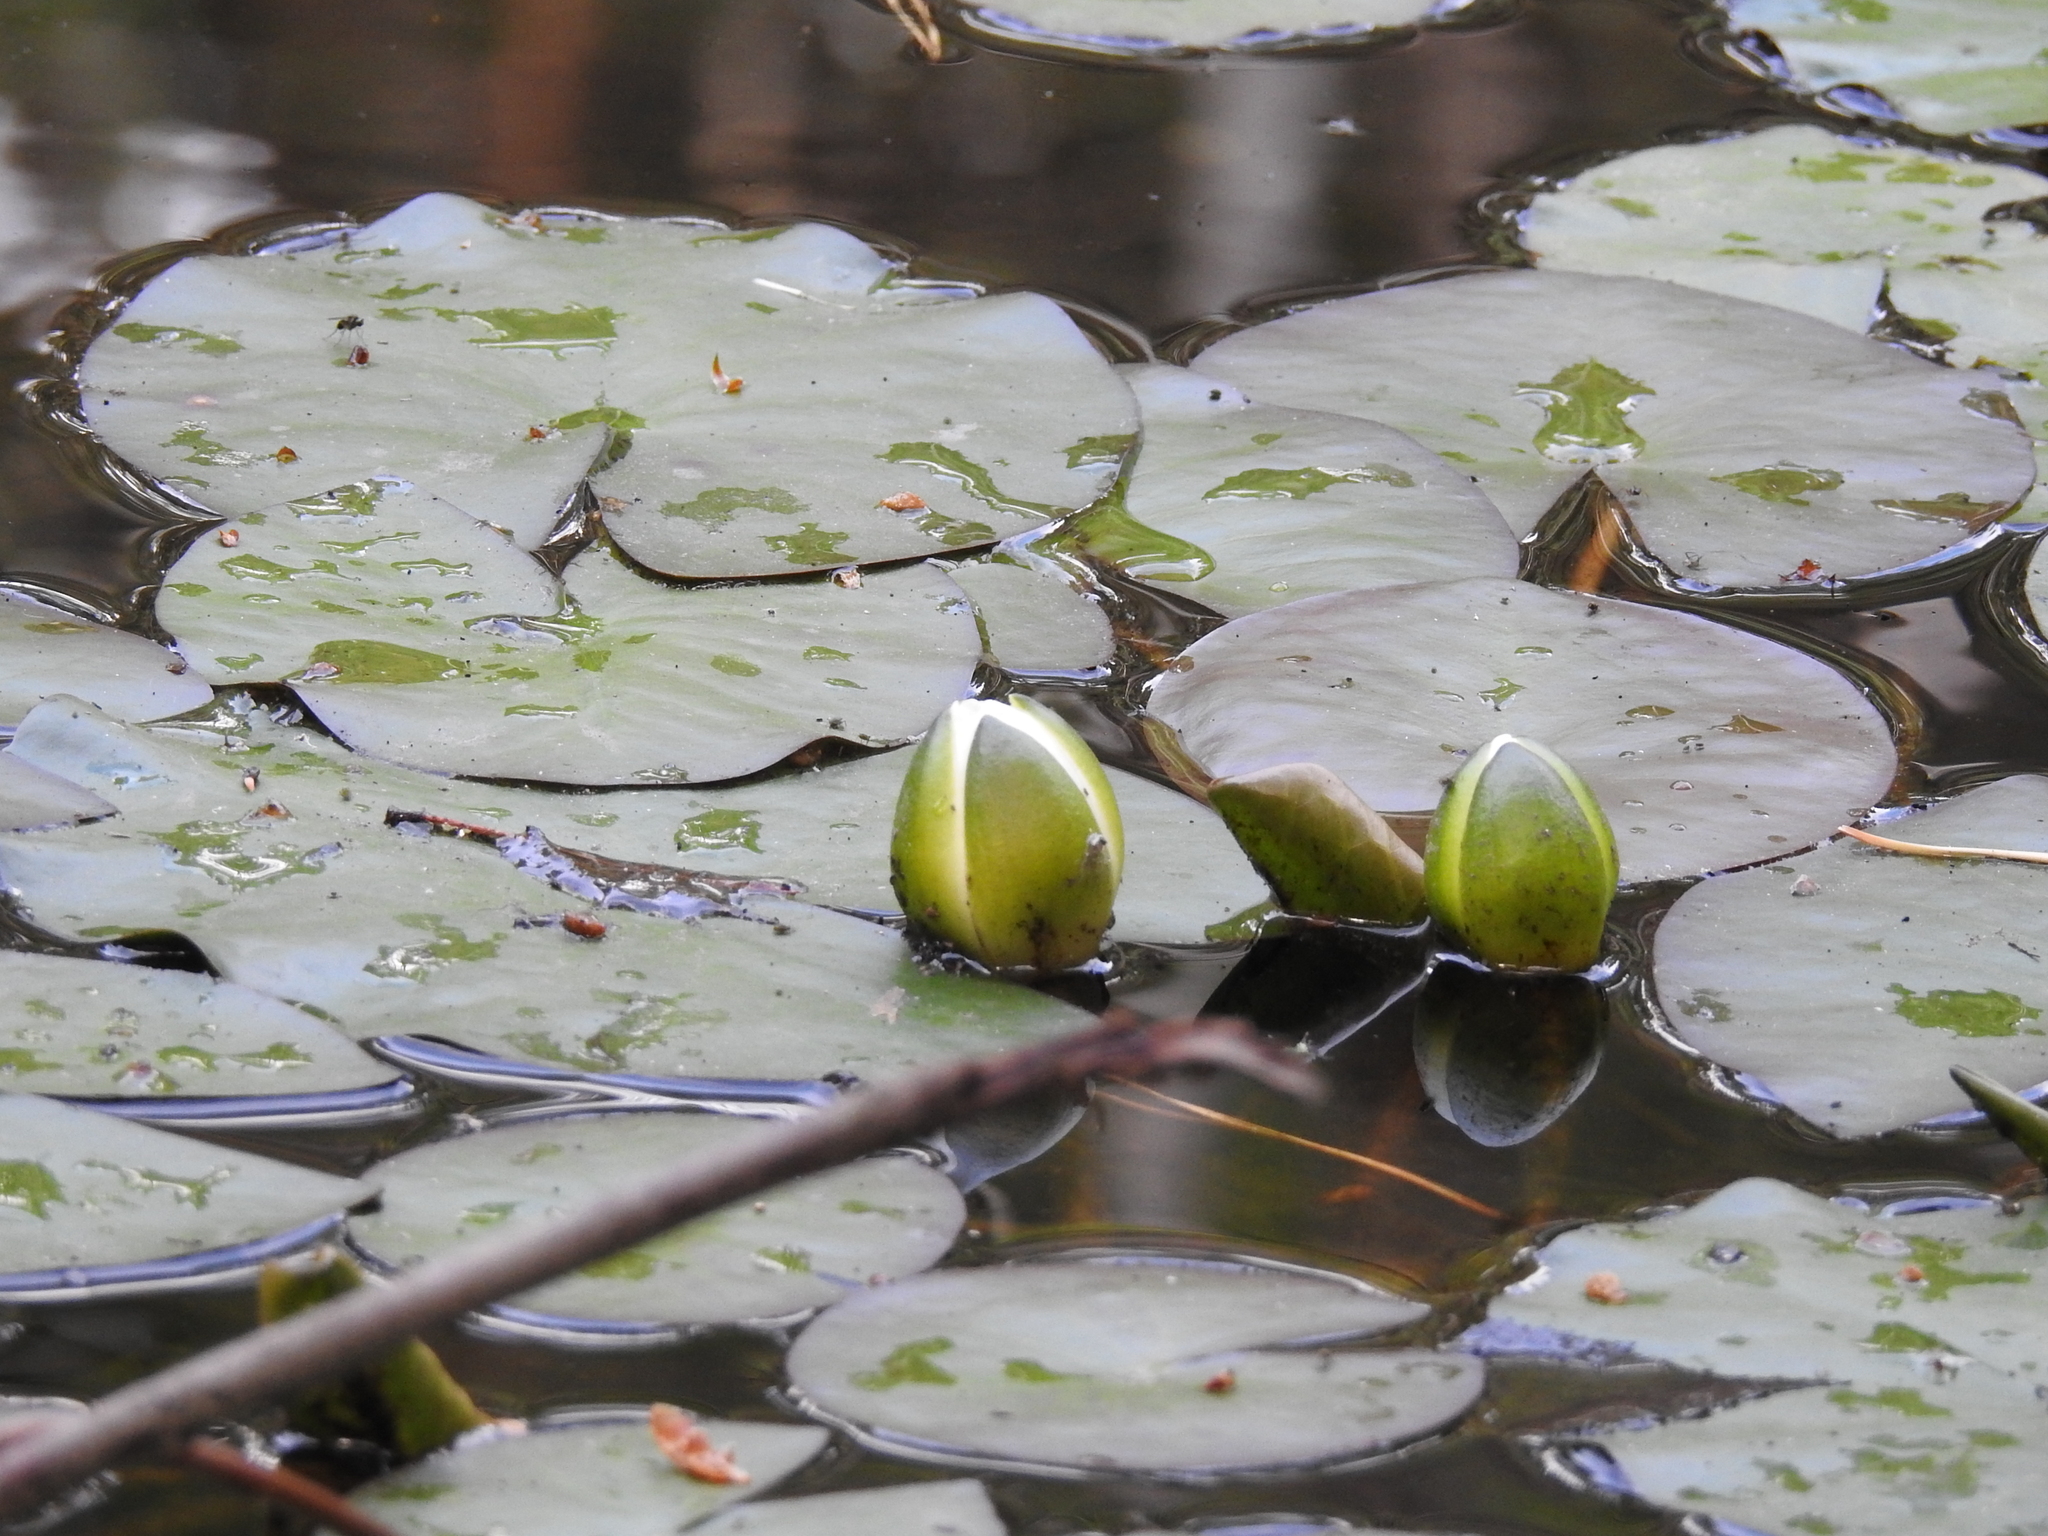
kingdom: Plantae
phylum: Tracheophyta
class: Magnoliopsida
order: Nymphaeales
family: Nymphaeaceae
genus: Nymphaea
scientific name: Nymphaea candida
